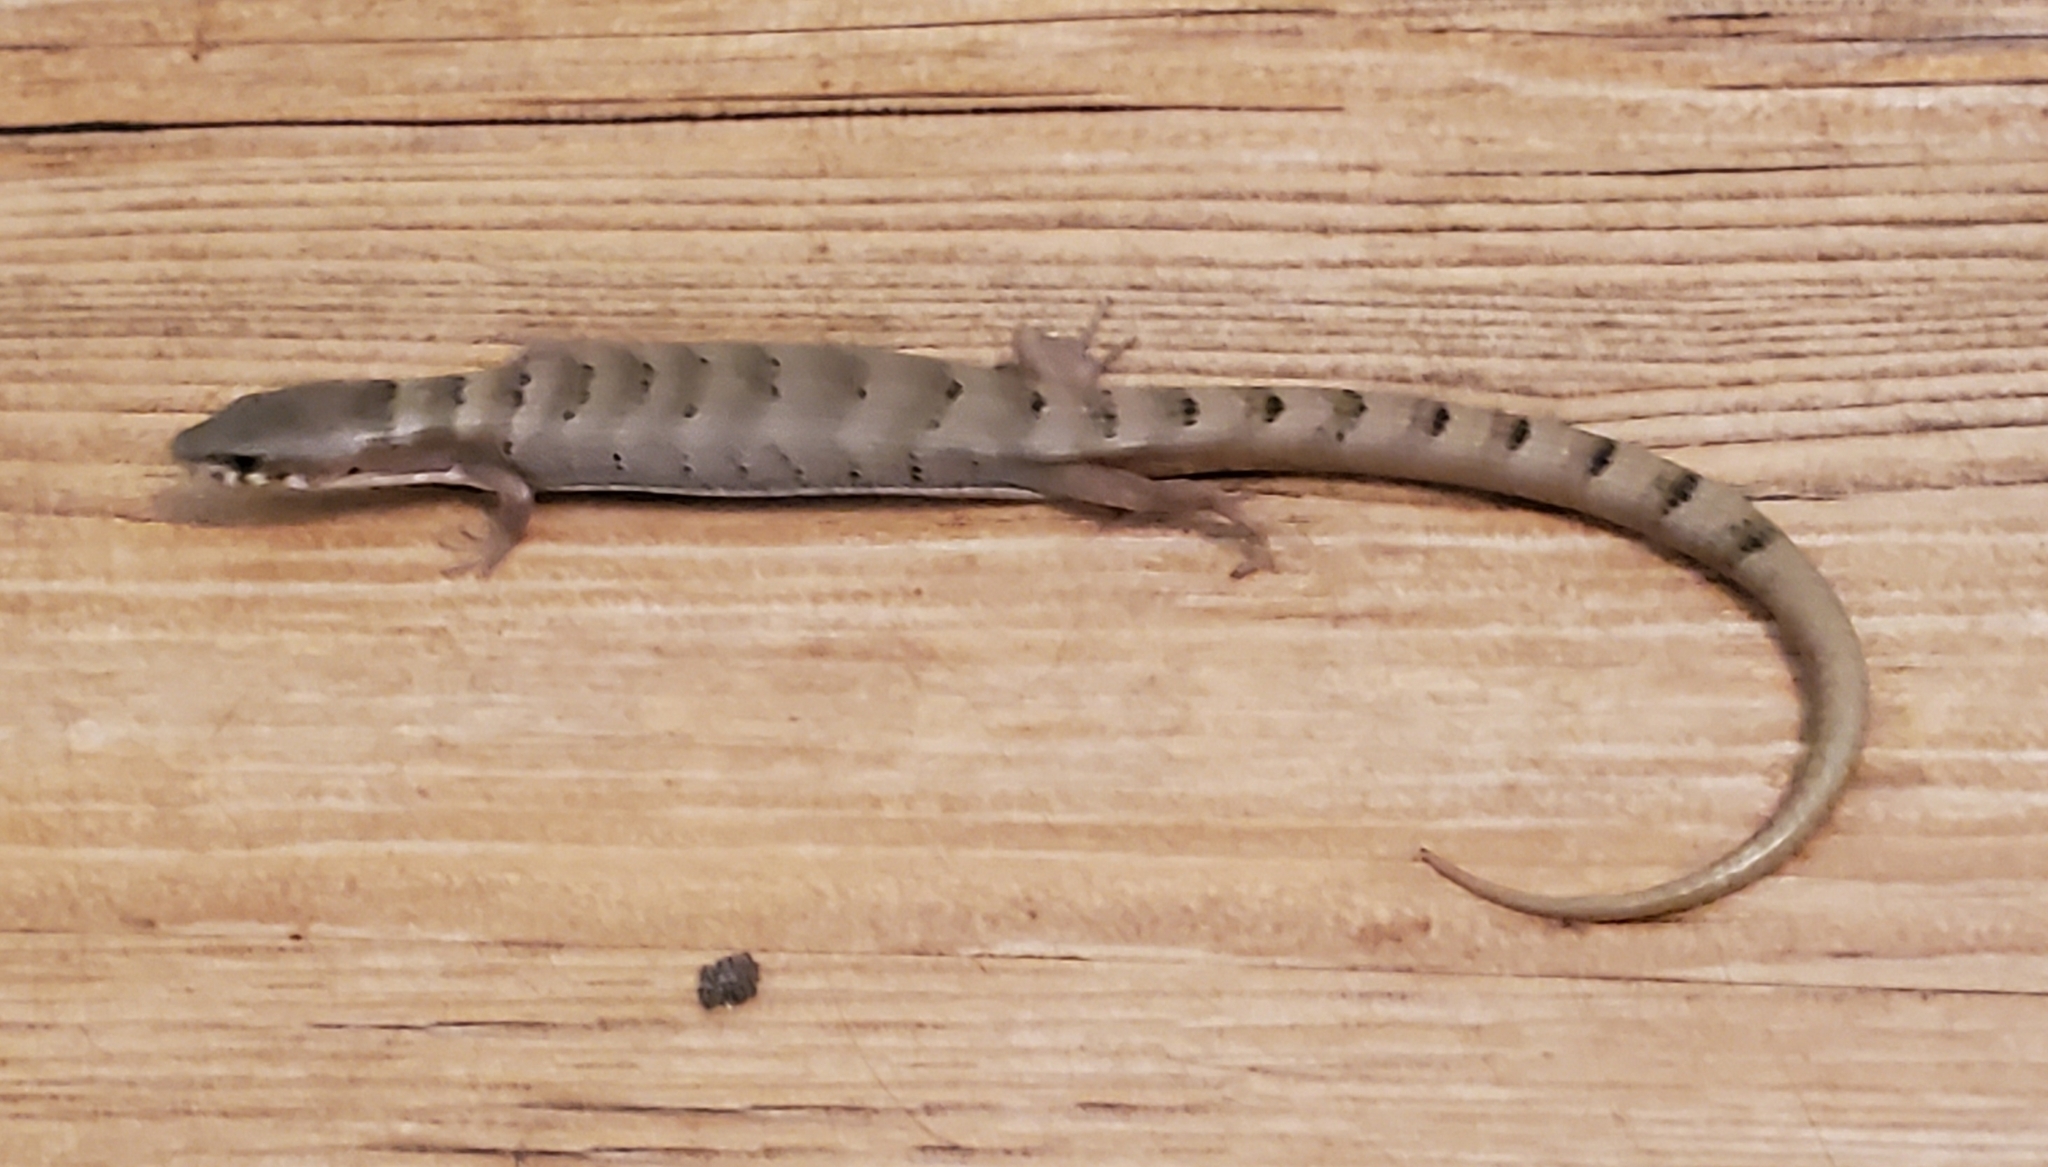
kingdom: Animalia
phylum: Chordata
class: Squamata
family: Anguidae
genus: Elgaria
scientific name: Elgaria kingii
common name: Madrean alligator lizard
